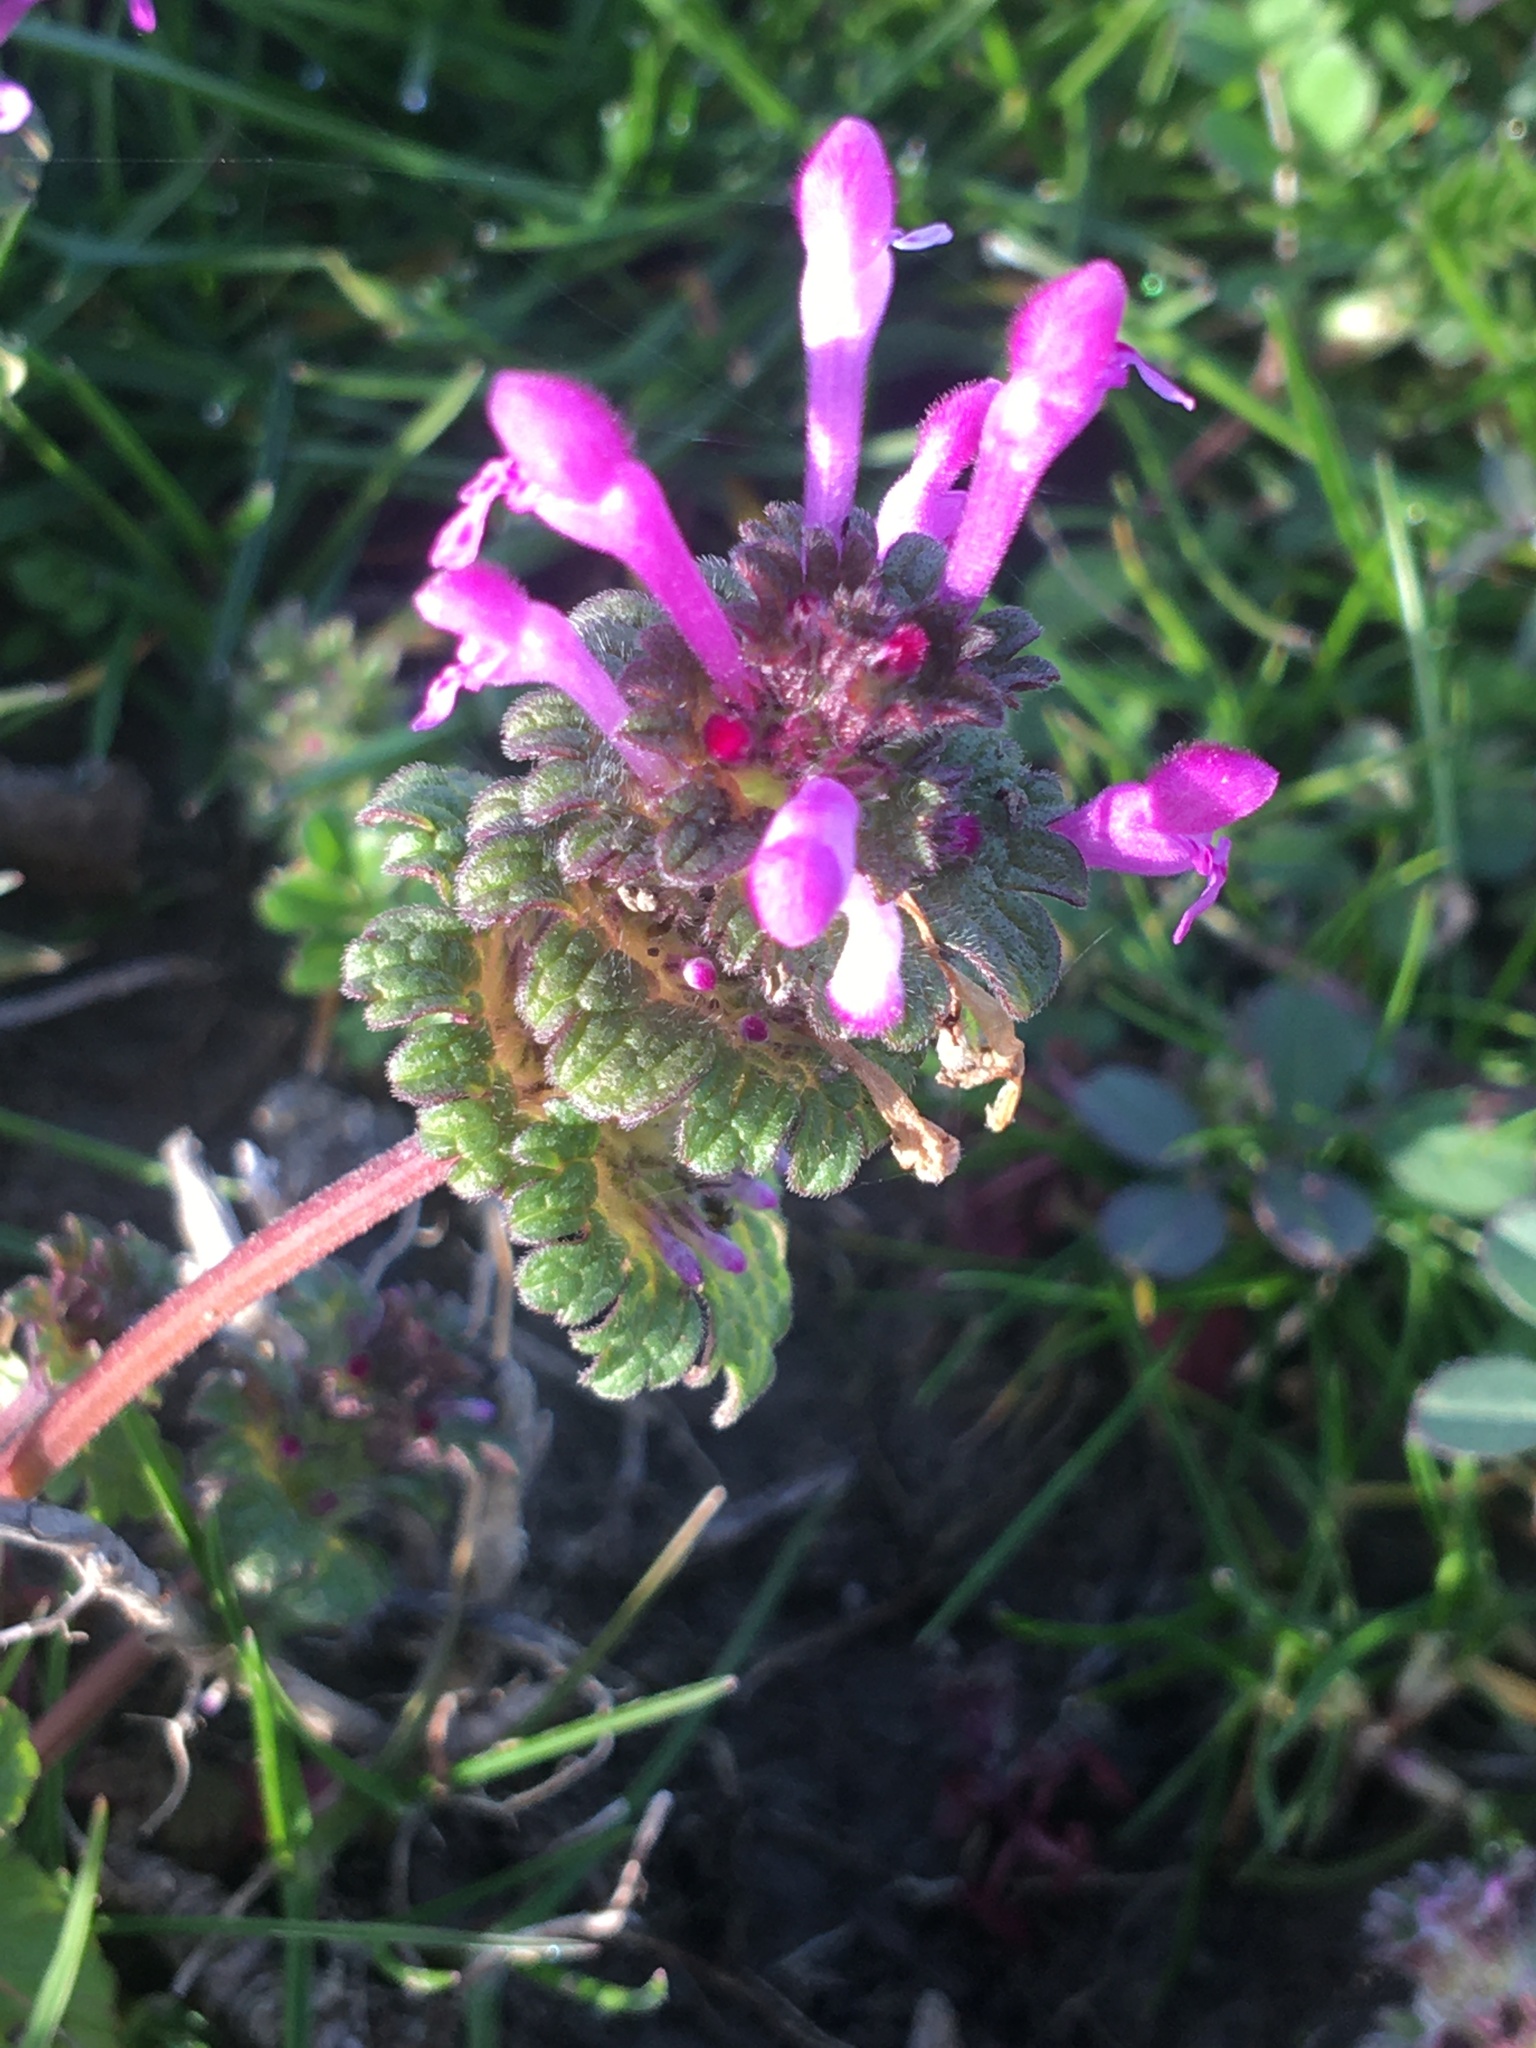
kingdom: Plantae
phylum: Tracheophyta
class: Magnoliopsida
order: Lamiales
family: Lamiaceae
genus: Lamium
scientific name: Lamium amplexicaule
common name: Henbit dead-nettle
